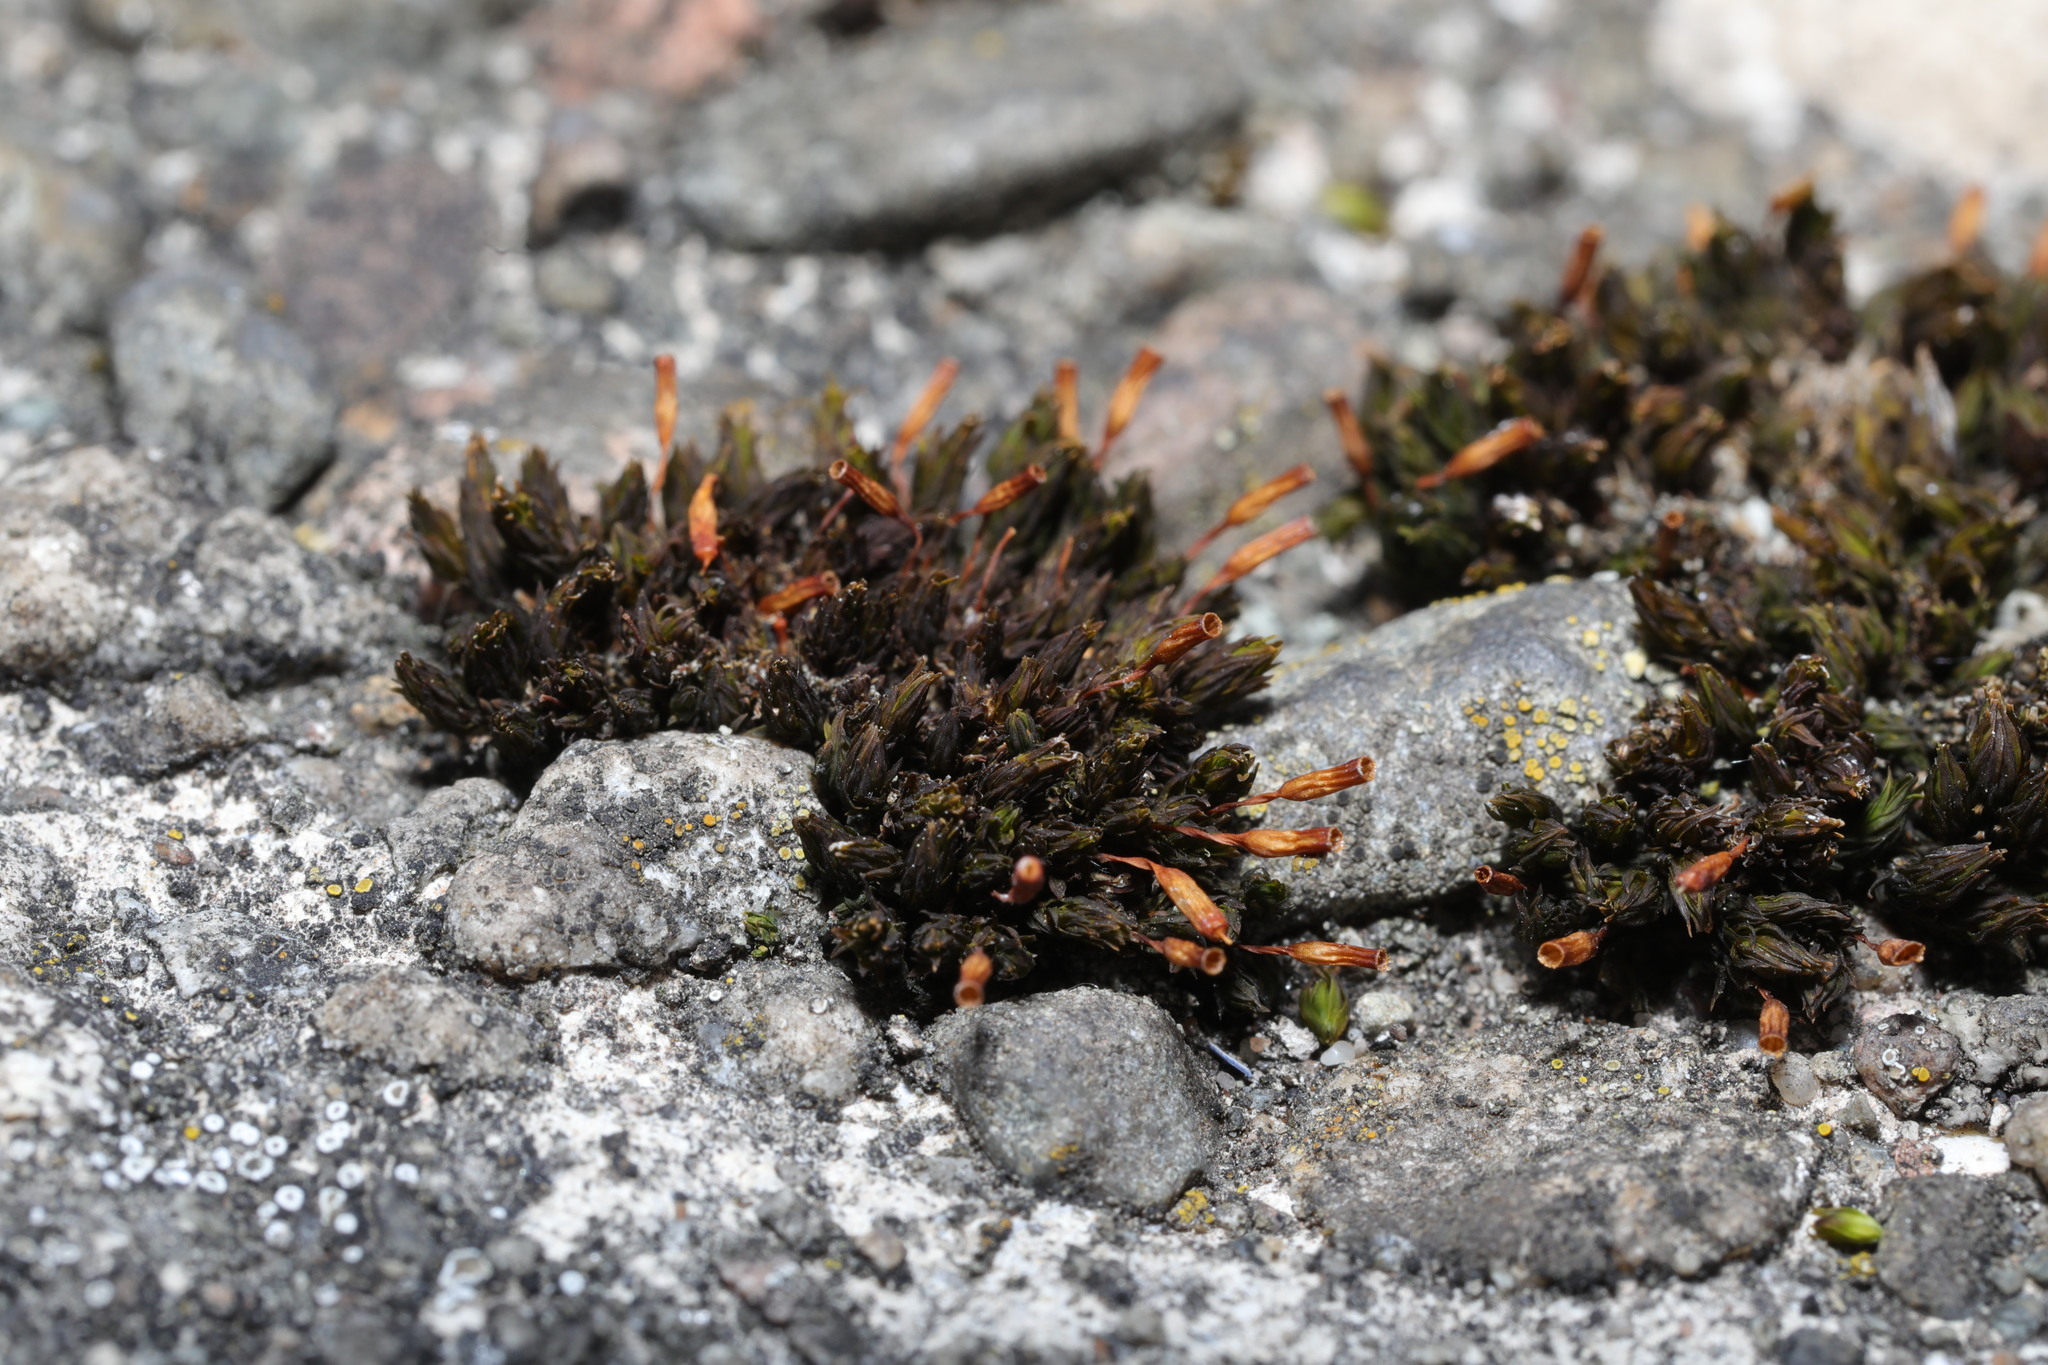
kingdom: Plantae
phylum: Bryophyta
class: Bryopsida
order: Orthotrichales
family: Orthotrichaceae
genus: Orthotrichum
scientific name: Orthotrichum anomalum
